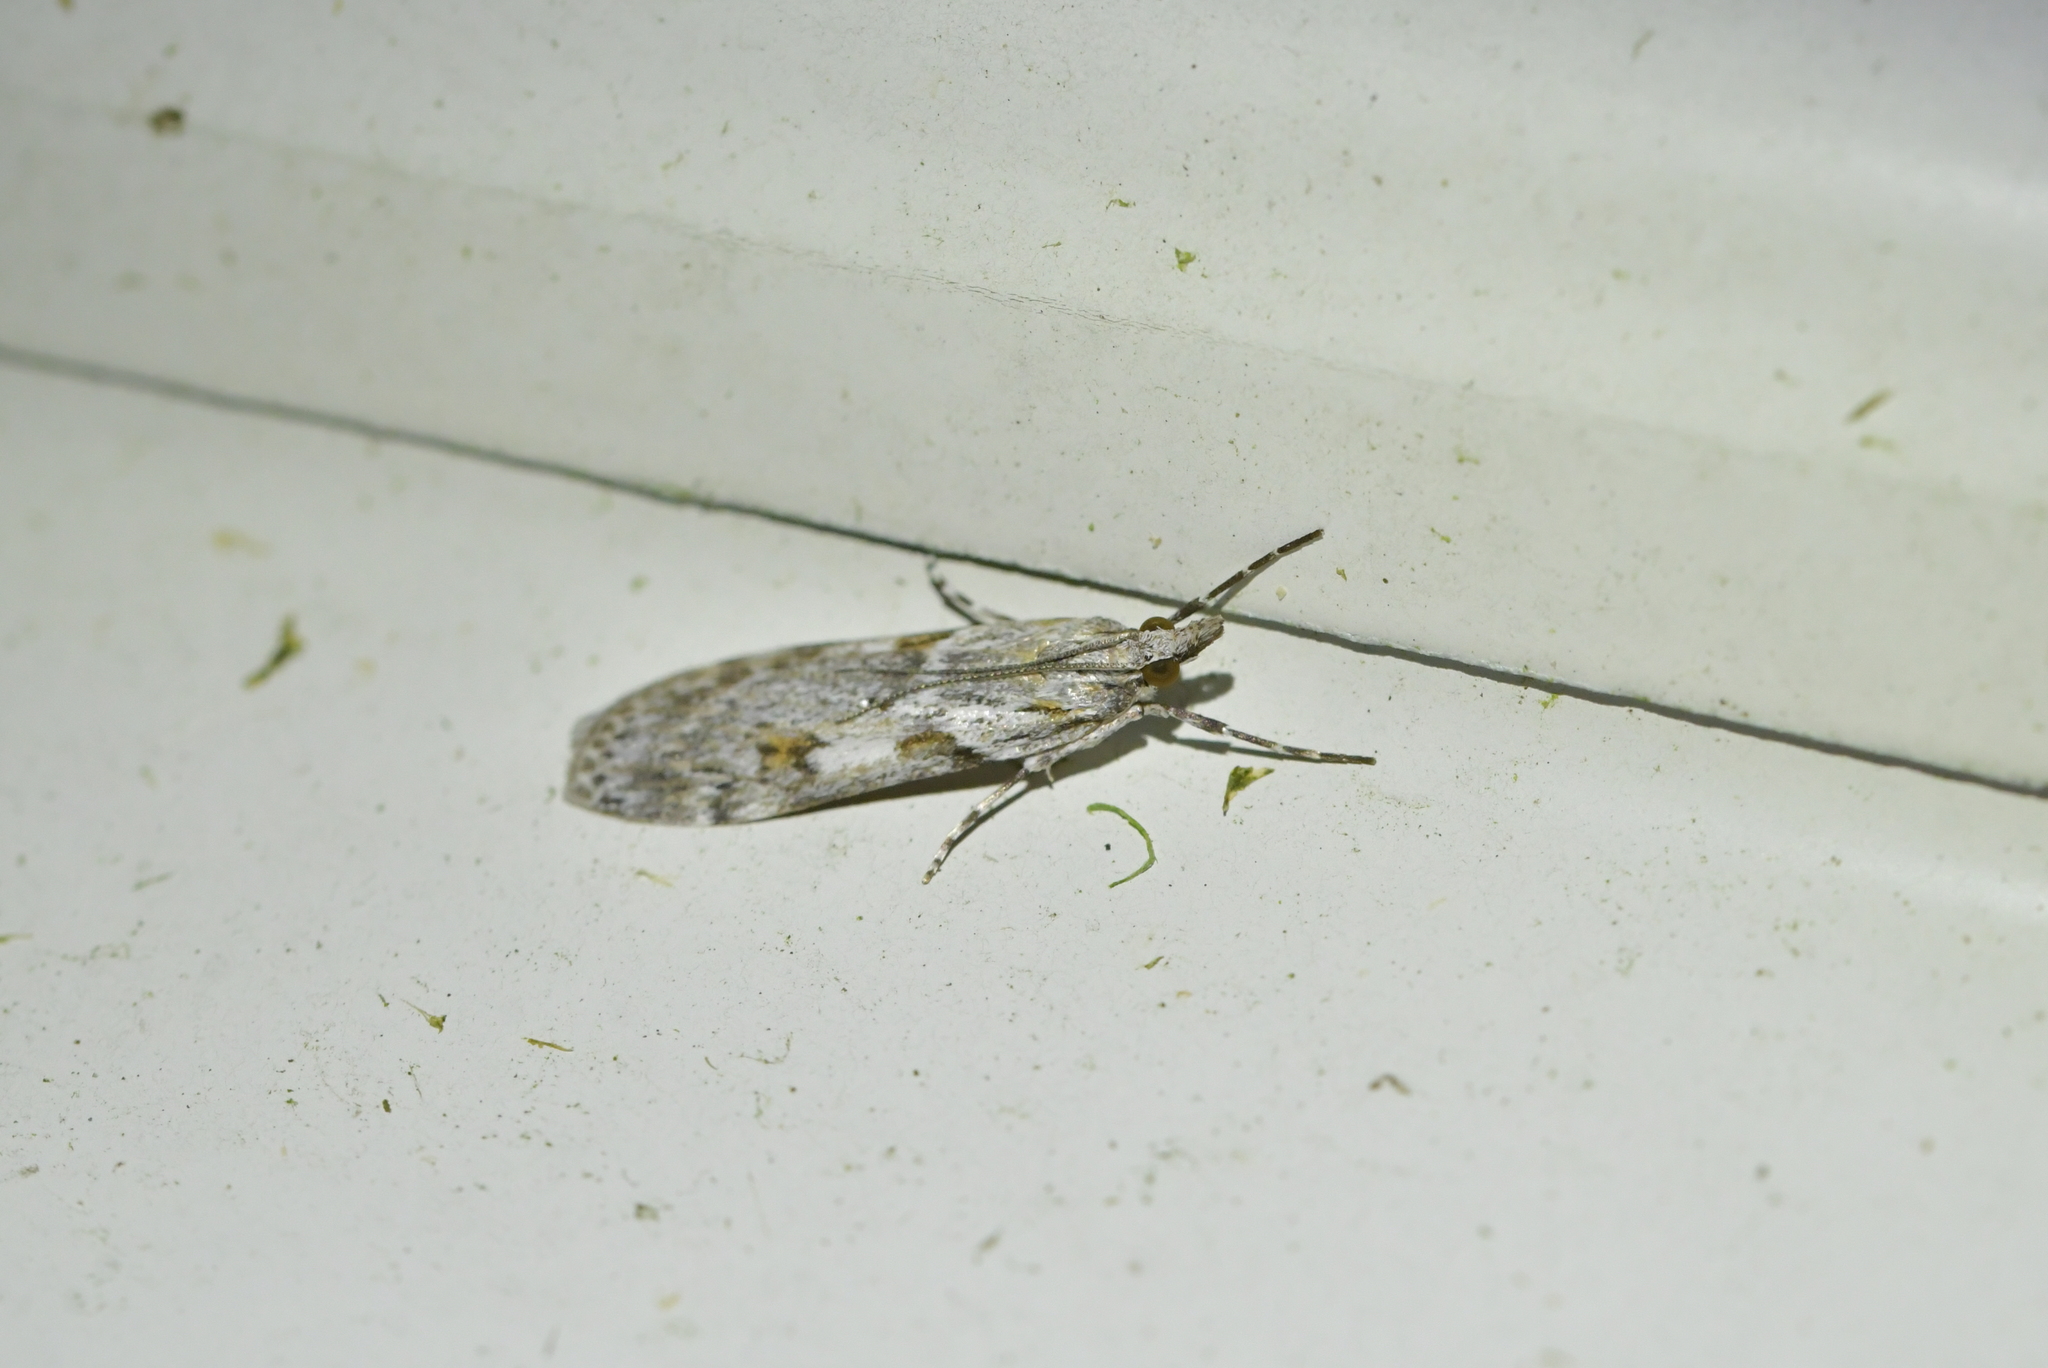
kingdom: Animalia
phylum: Arthropoda
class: Insecta
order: Lepidoptera
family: Crambidae
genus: Scoparia
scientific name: Scoparia halopis
